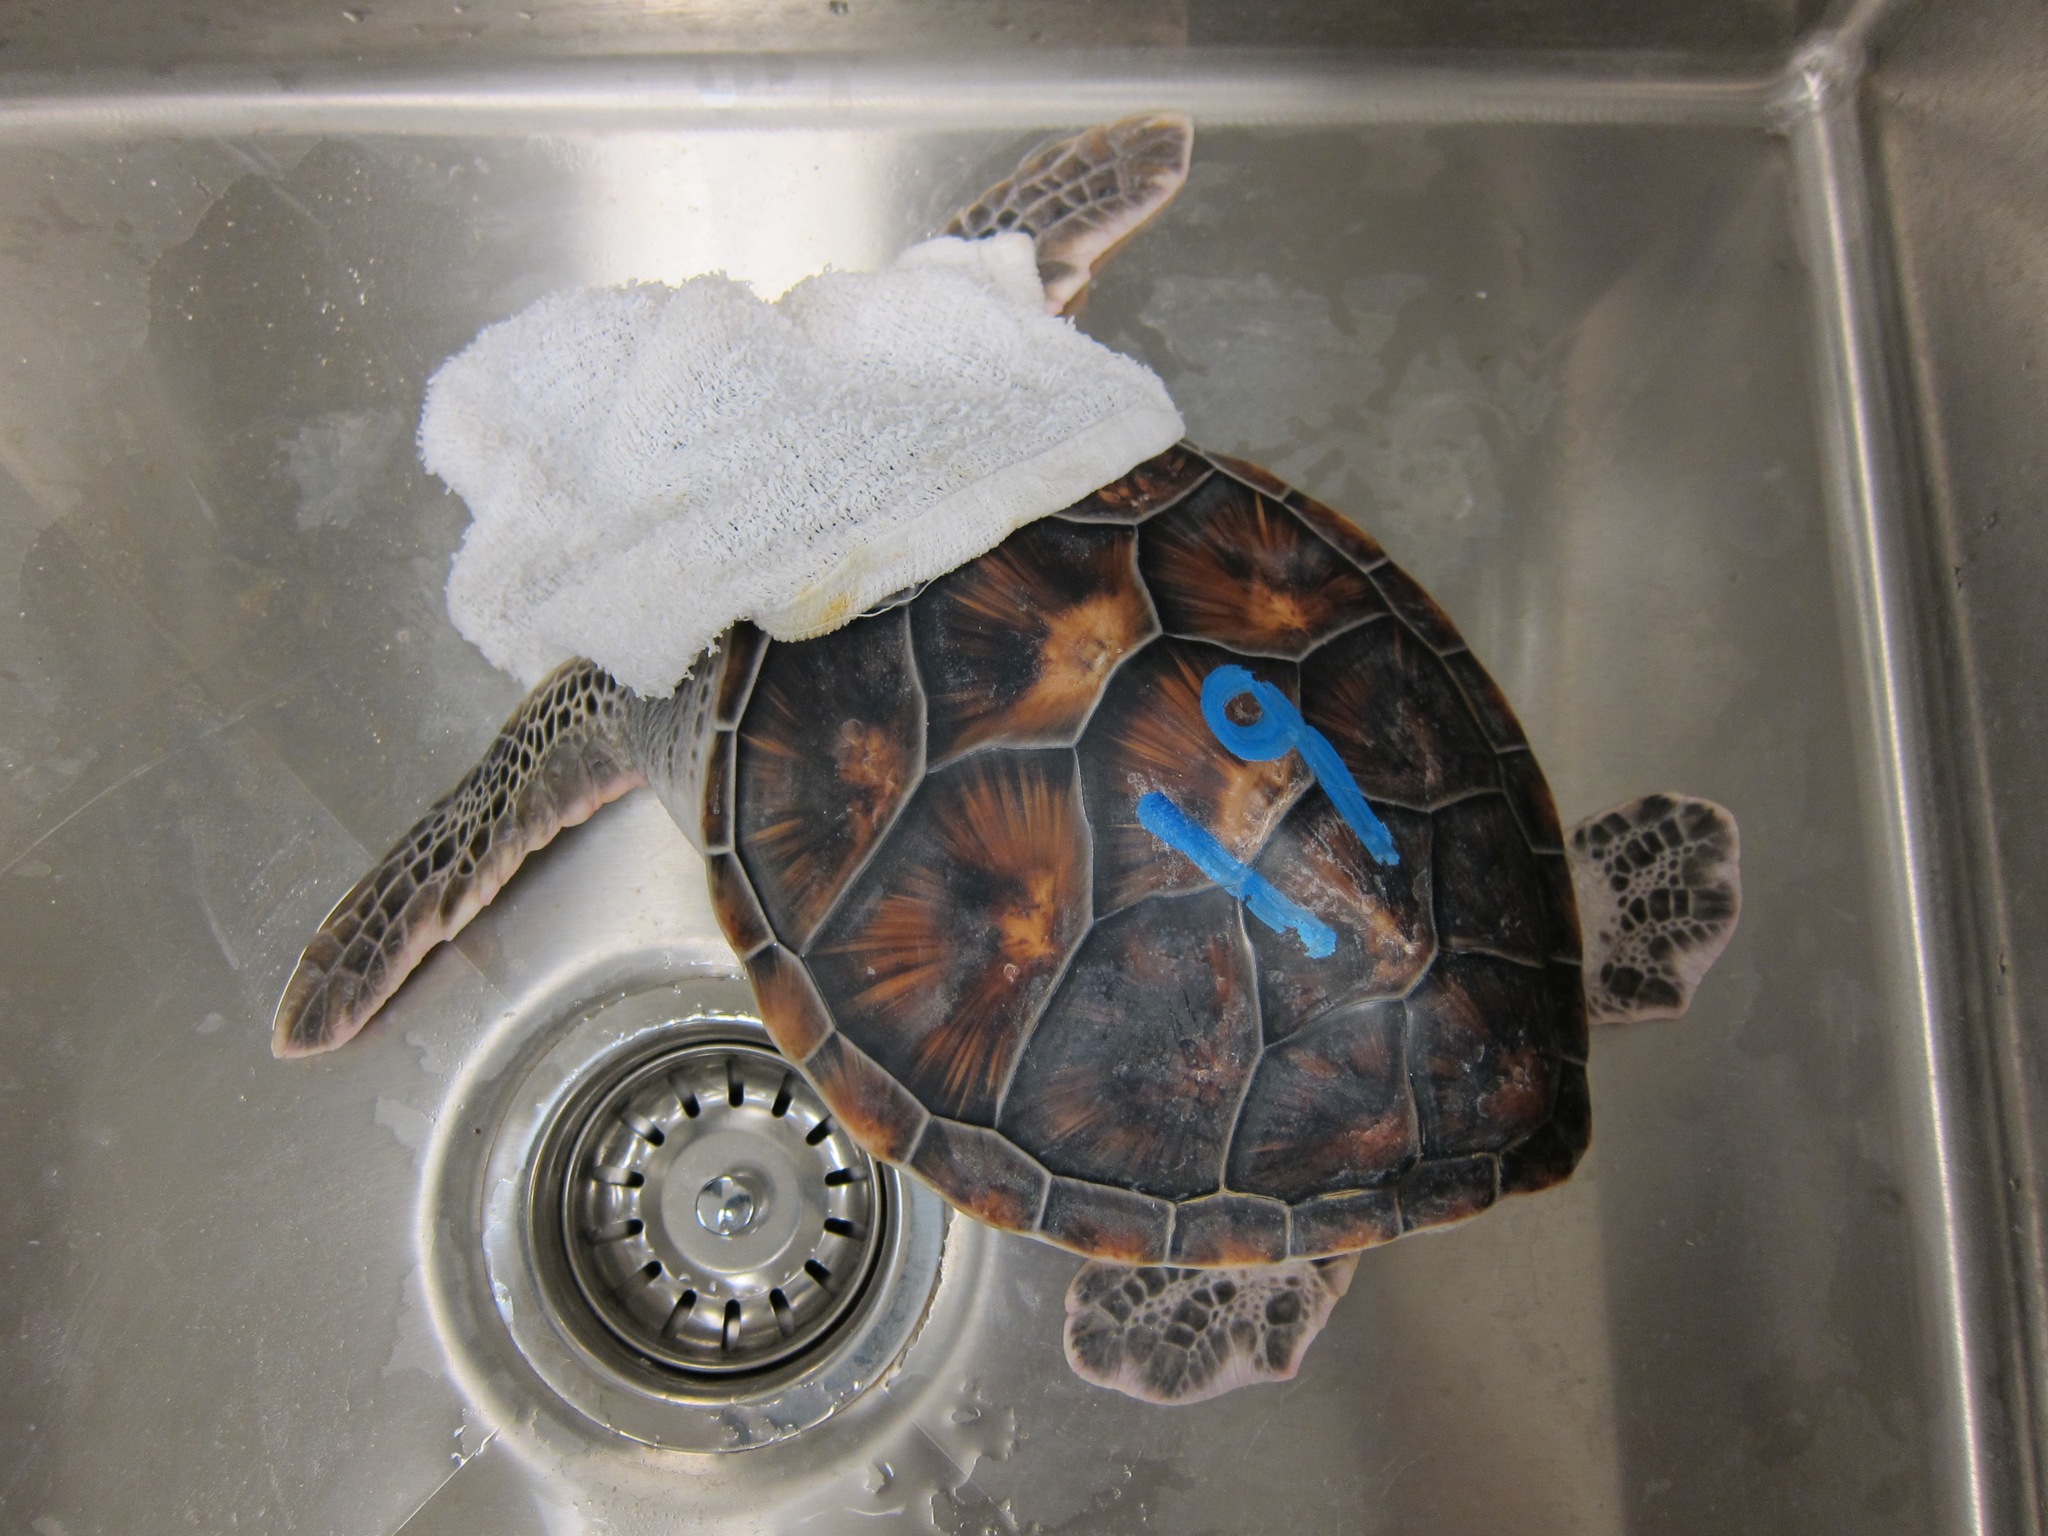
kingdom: Animalia
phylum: Chordata
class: Testudines
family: Cheloniidae
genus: Chelonia
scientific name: Chelonia mydas
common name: Green turtle
